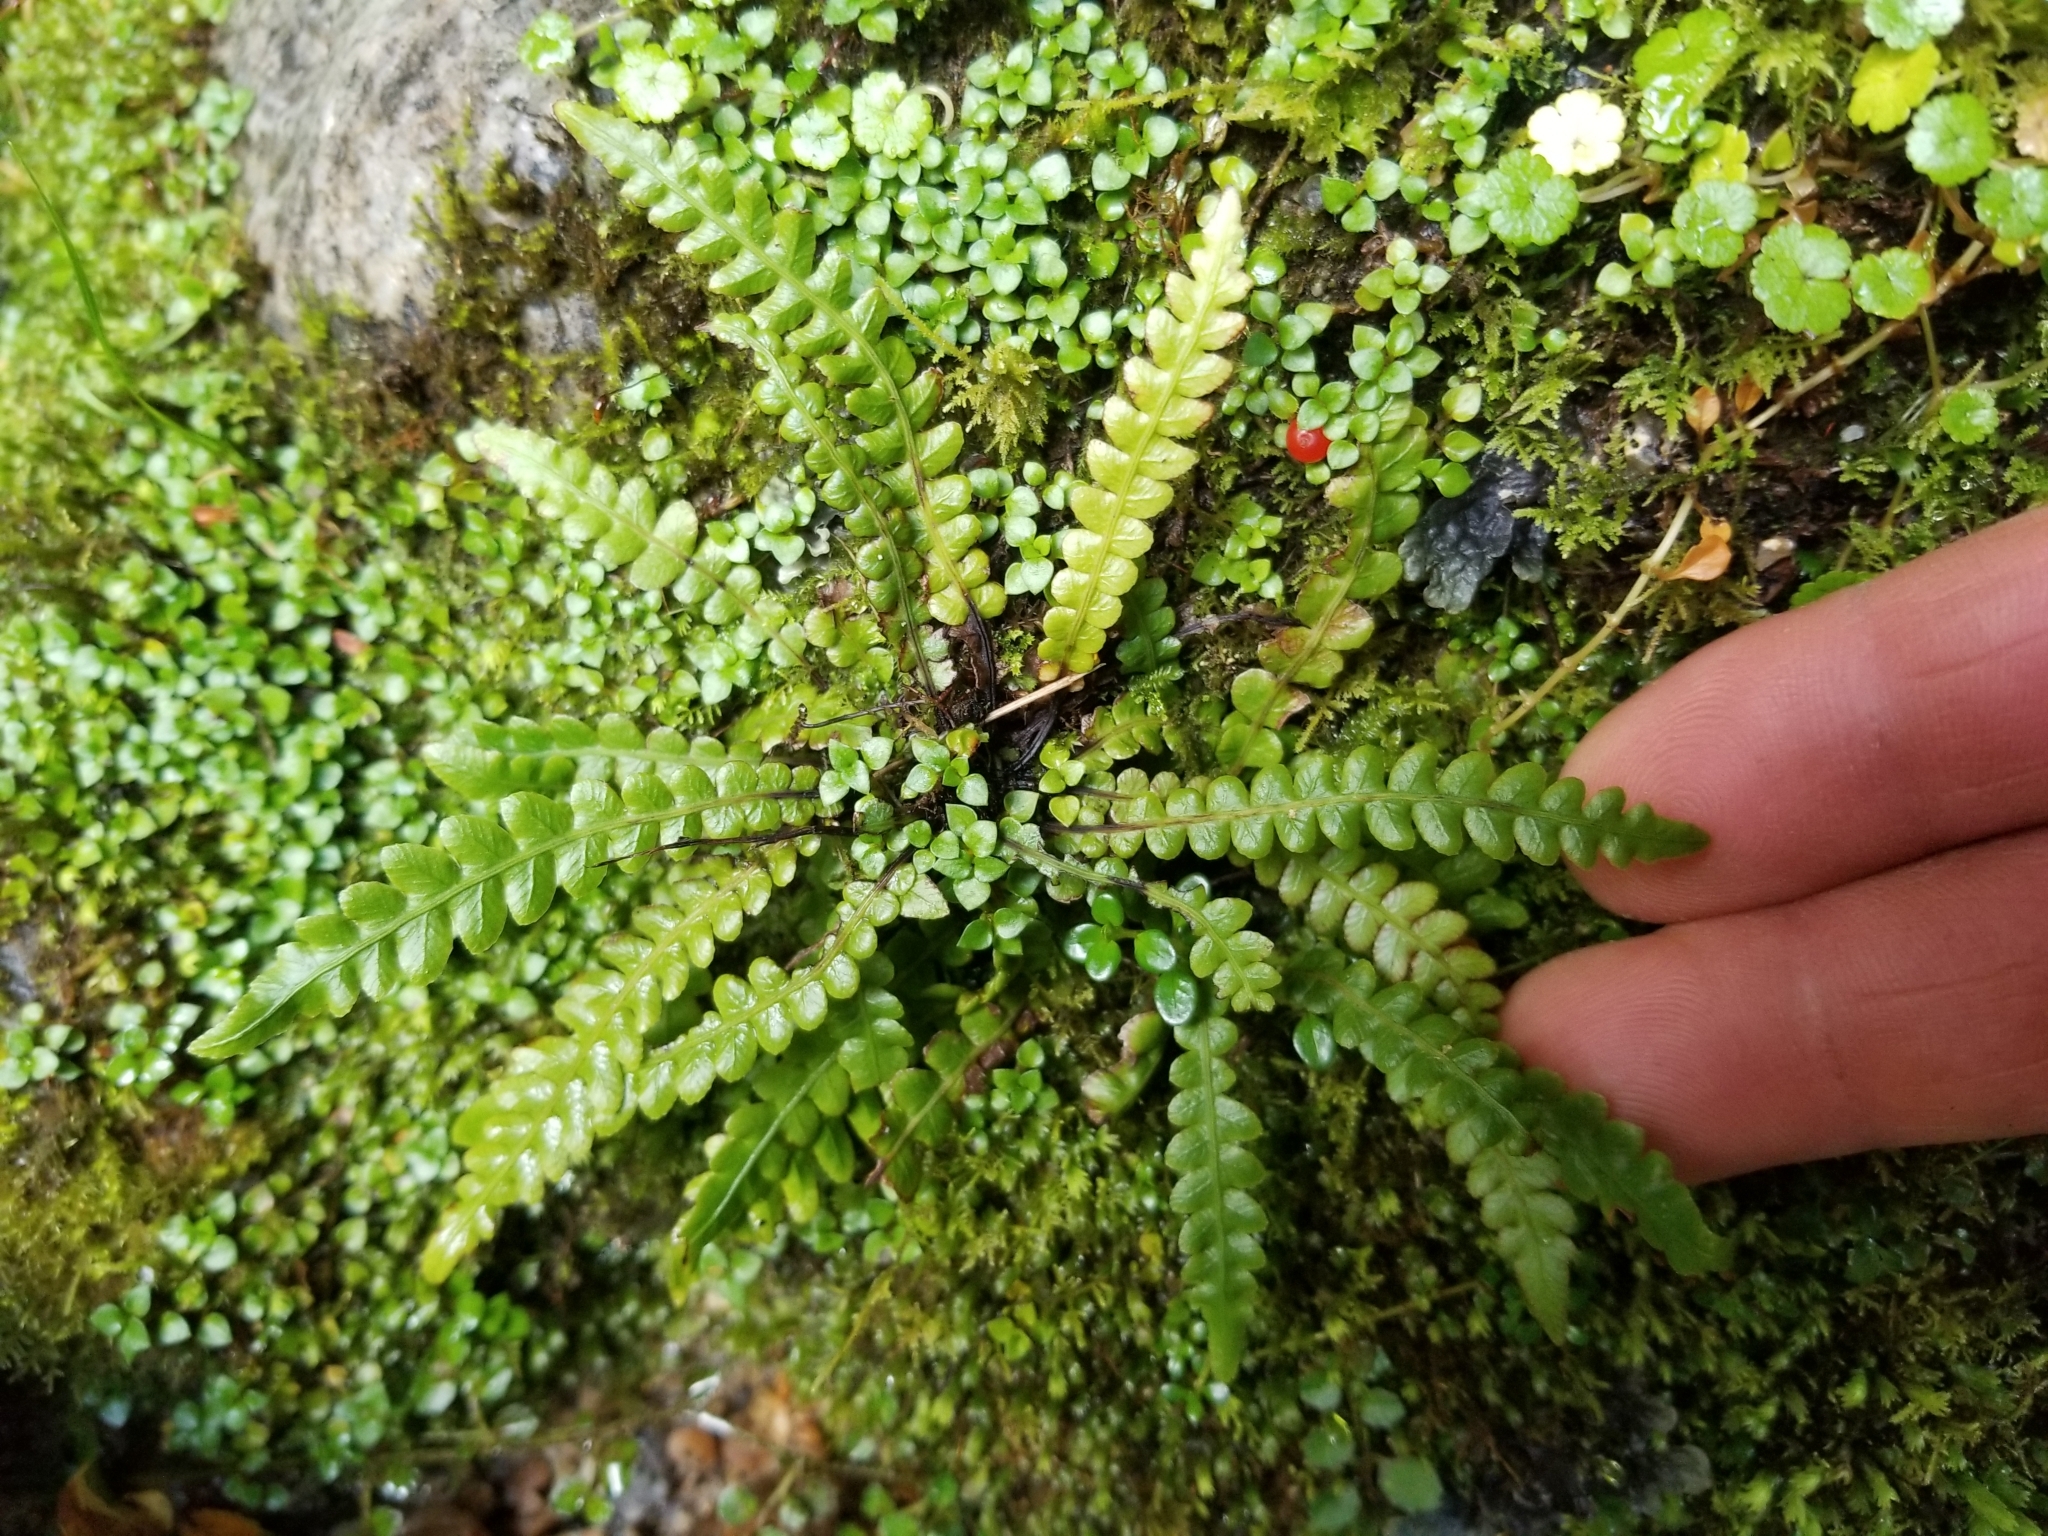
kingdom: Plantae
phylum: Tracheophyta
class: Polypodiopsida
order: Polypodiales
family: Blechnaceae
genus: Austroblechnum
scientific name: Austroblechnum penna-marina
